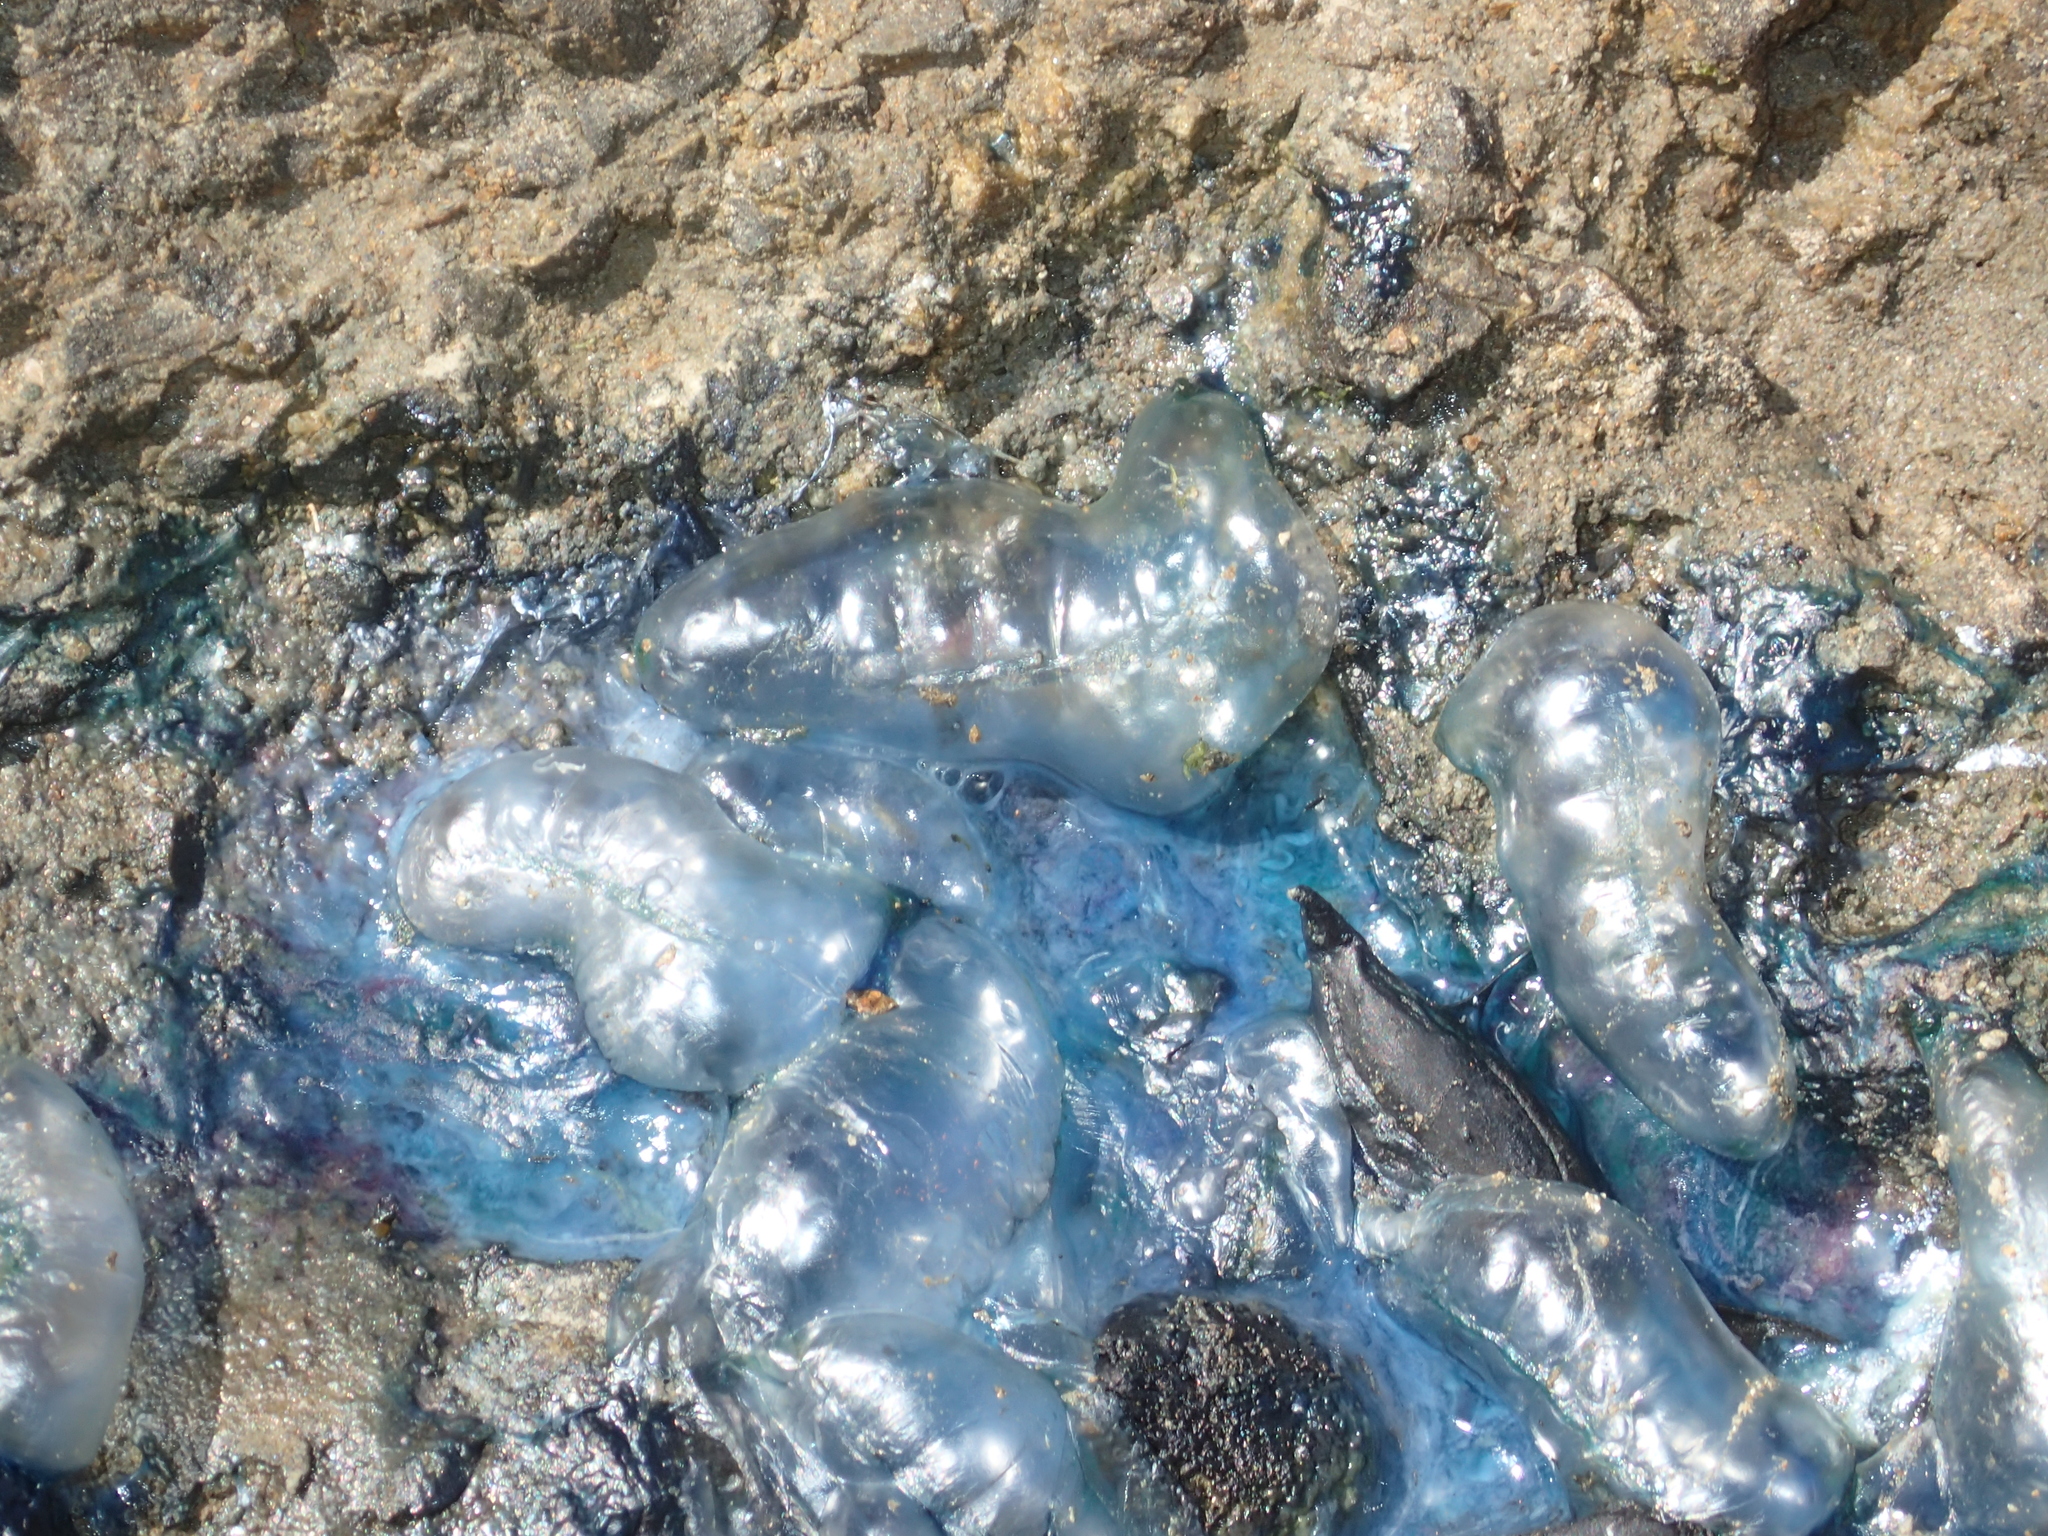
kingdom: Animalia
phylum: Cnidaria
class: Hydrozoa
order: Siphonophorae
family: Physaliidae
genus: Physalia
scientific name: Physalia physalis
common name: Portuguese man-of-war
